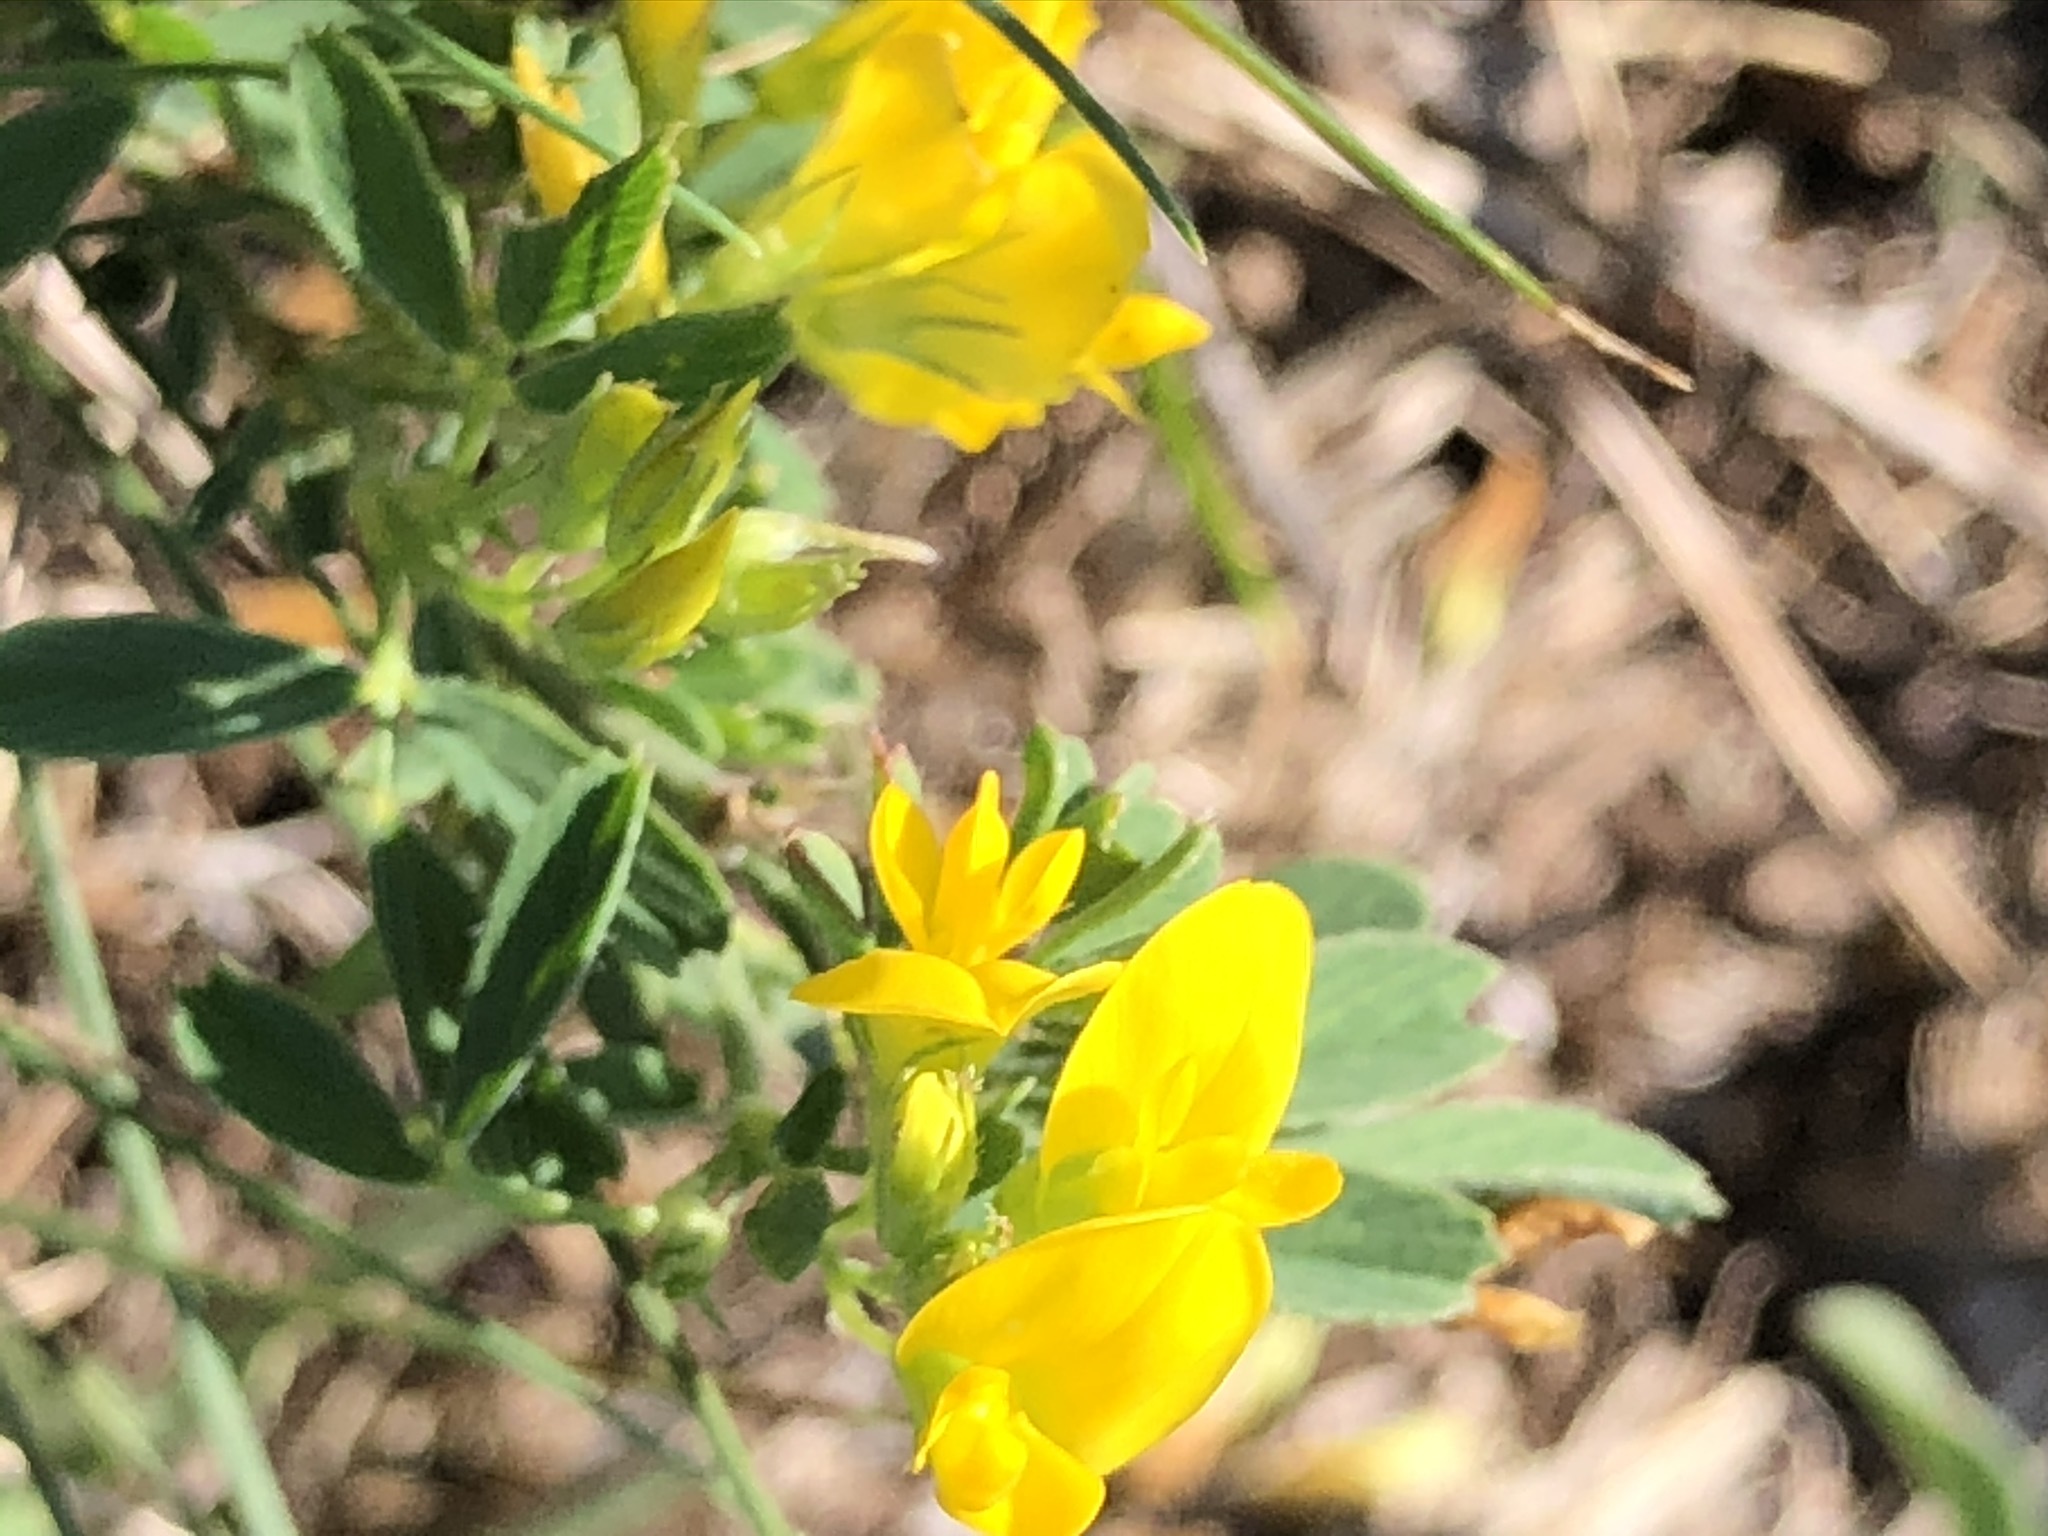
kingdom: Plantae
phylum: Tracheophyta
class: Magnoliopsida
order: Fabales
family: Fabaceae
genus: Medicago
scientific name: Medicago falcata
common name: Sickle medick
